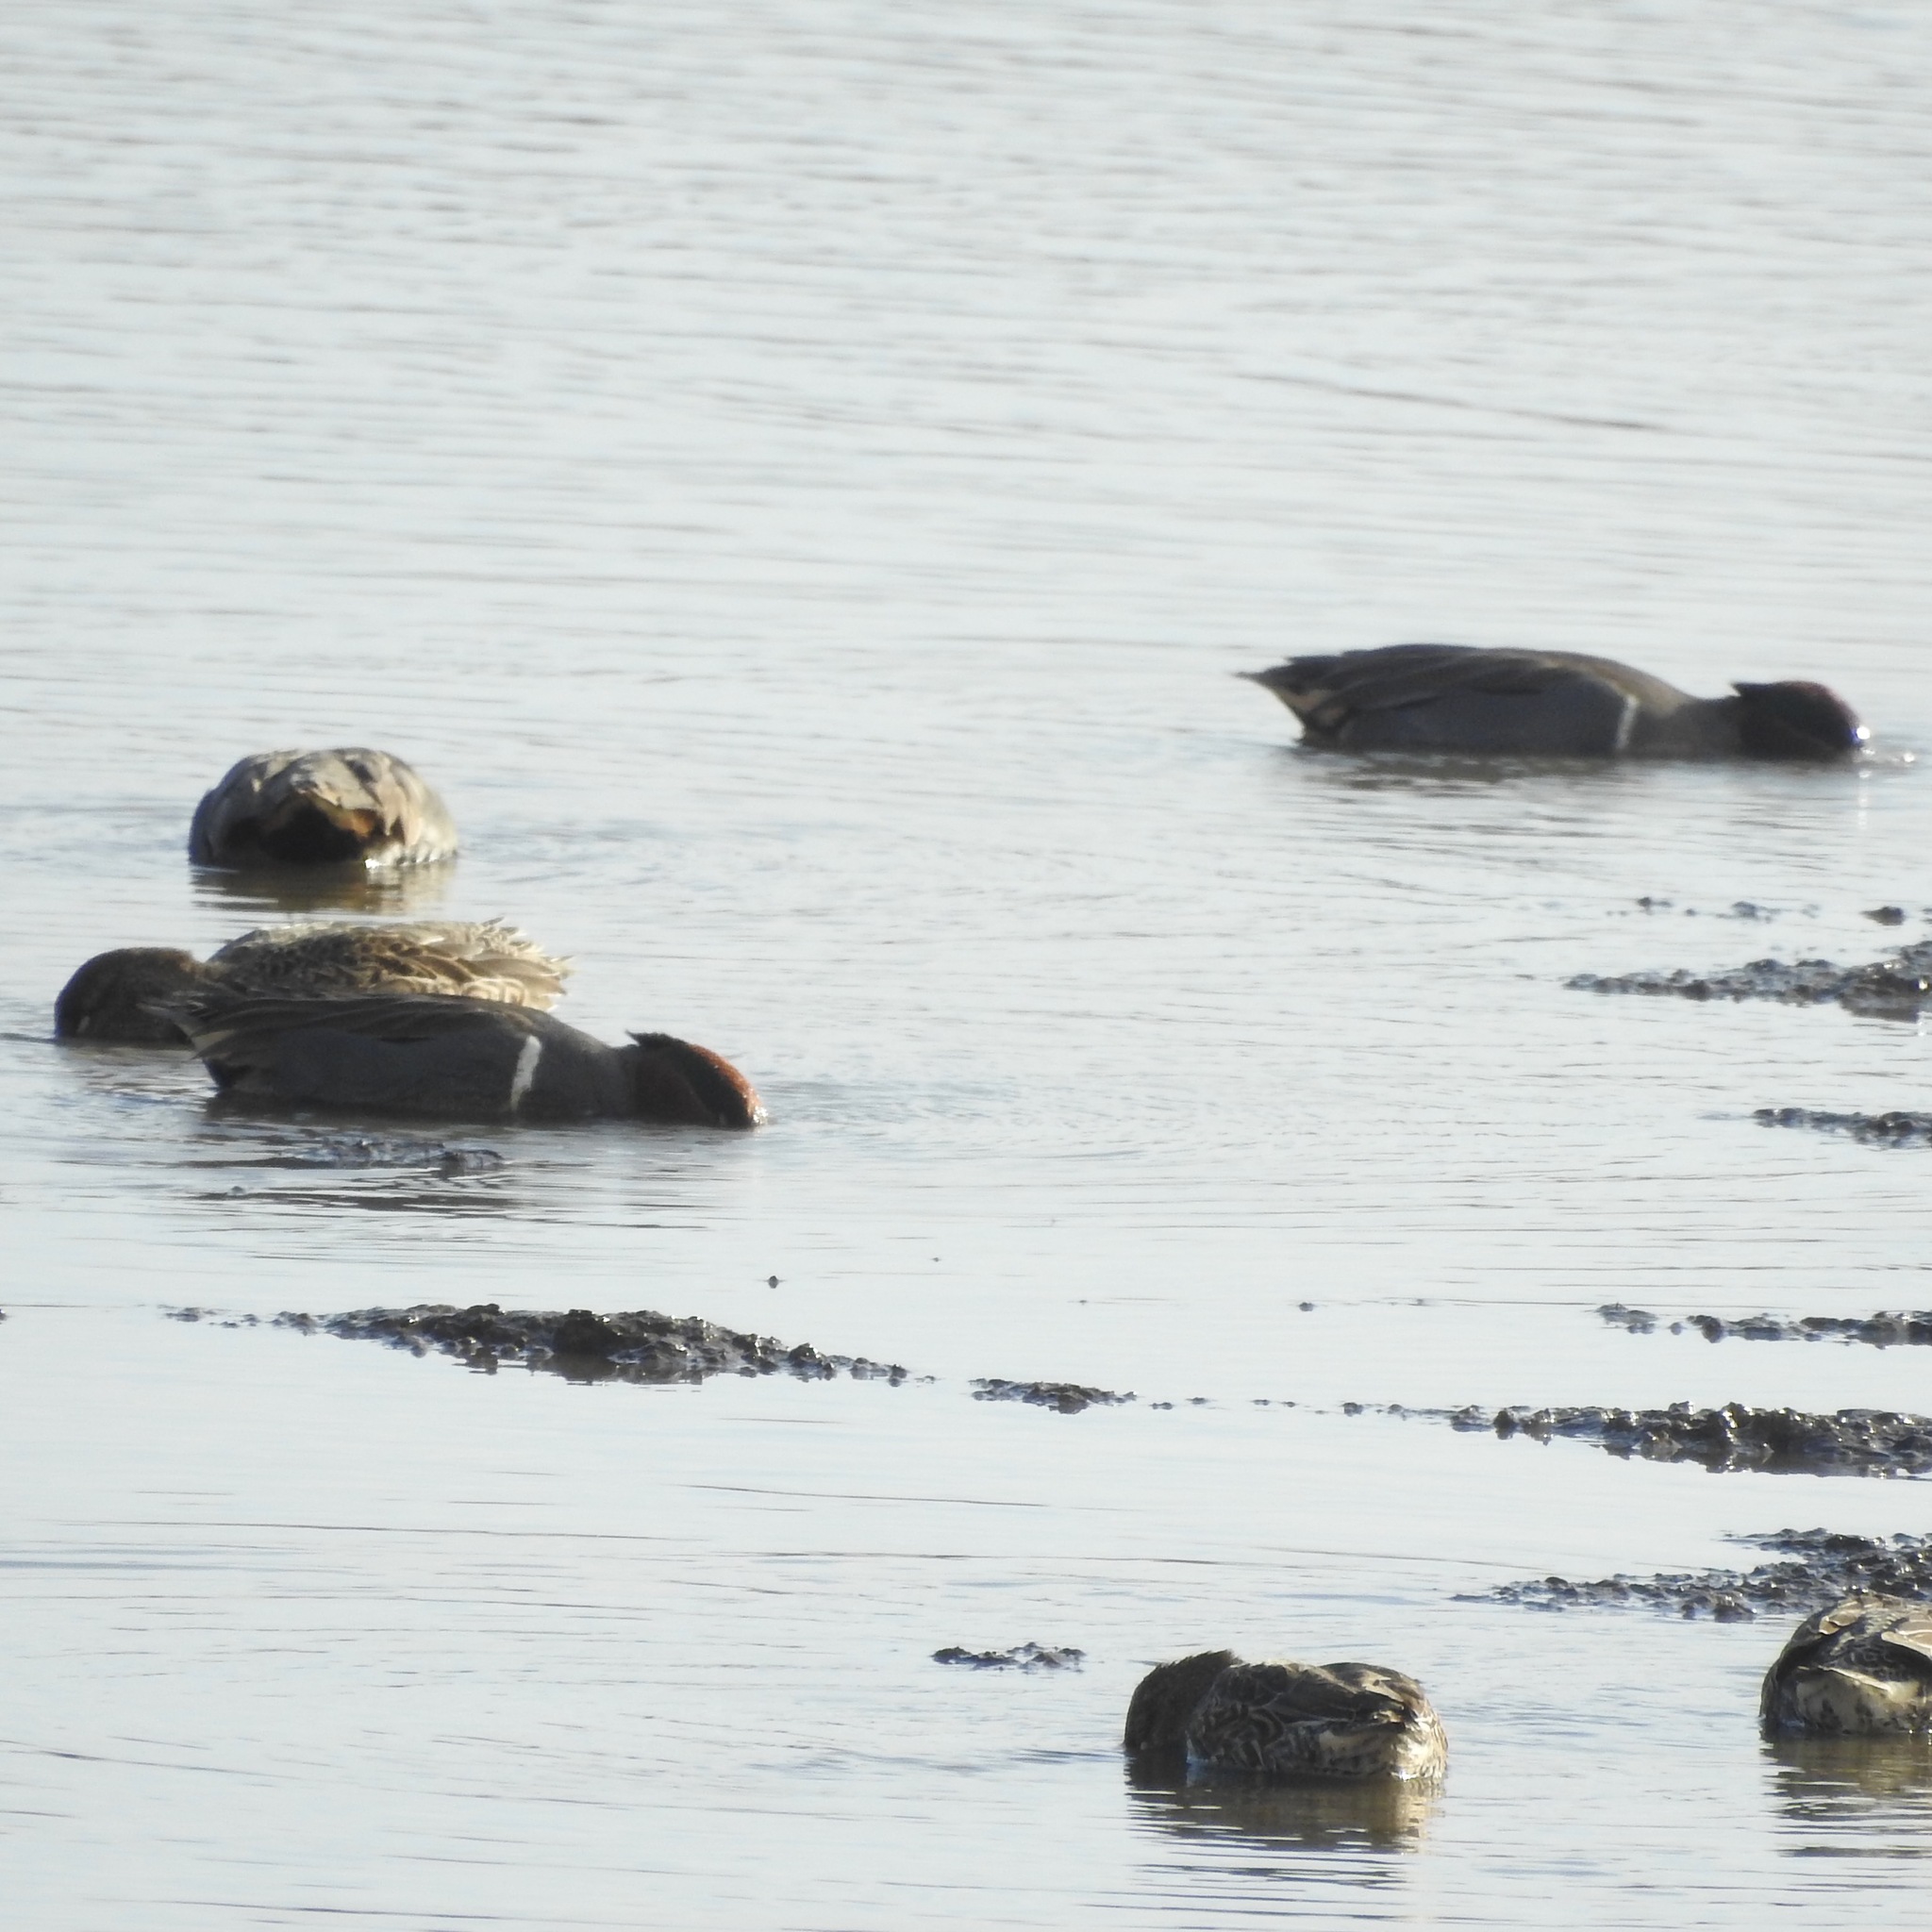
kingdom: Animalia
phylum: Chordata
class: Aves
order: Anseriformes
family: Anatidae
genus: Anas
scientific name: Anas crecca
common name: Eurasian teal
